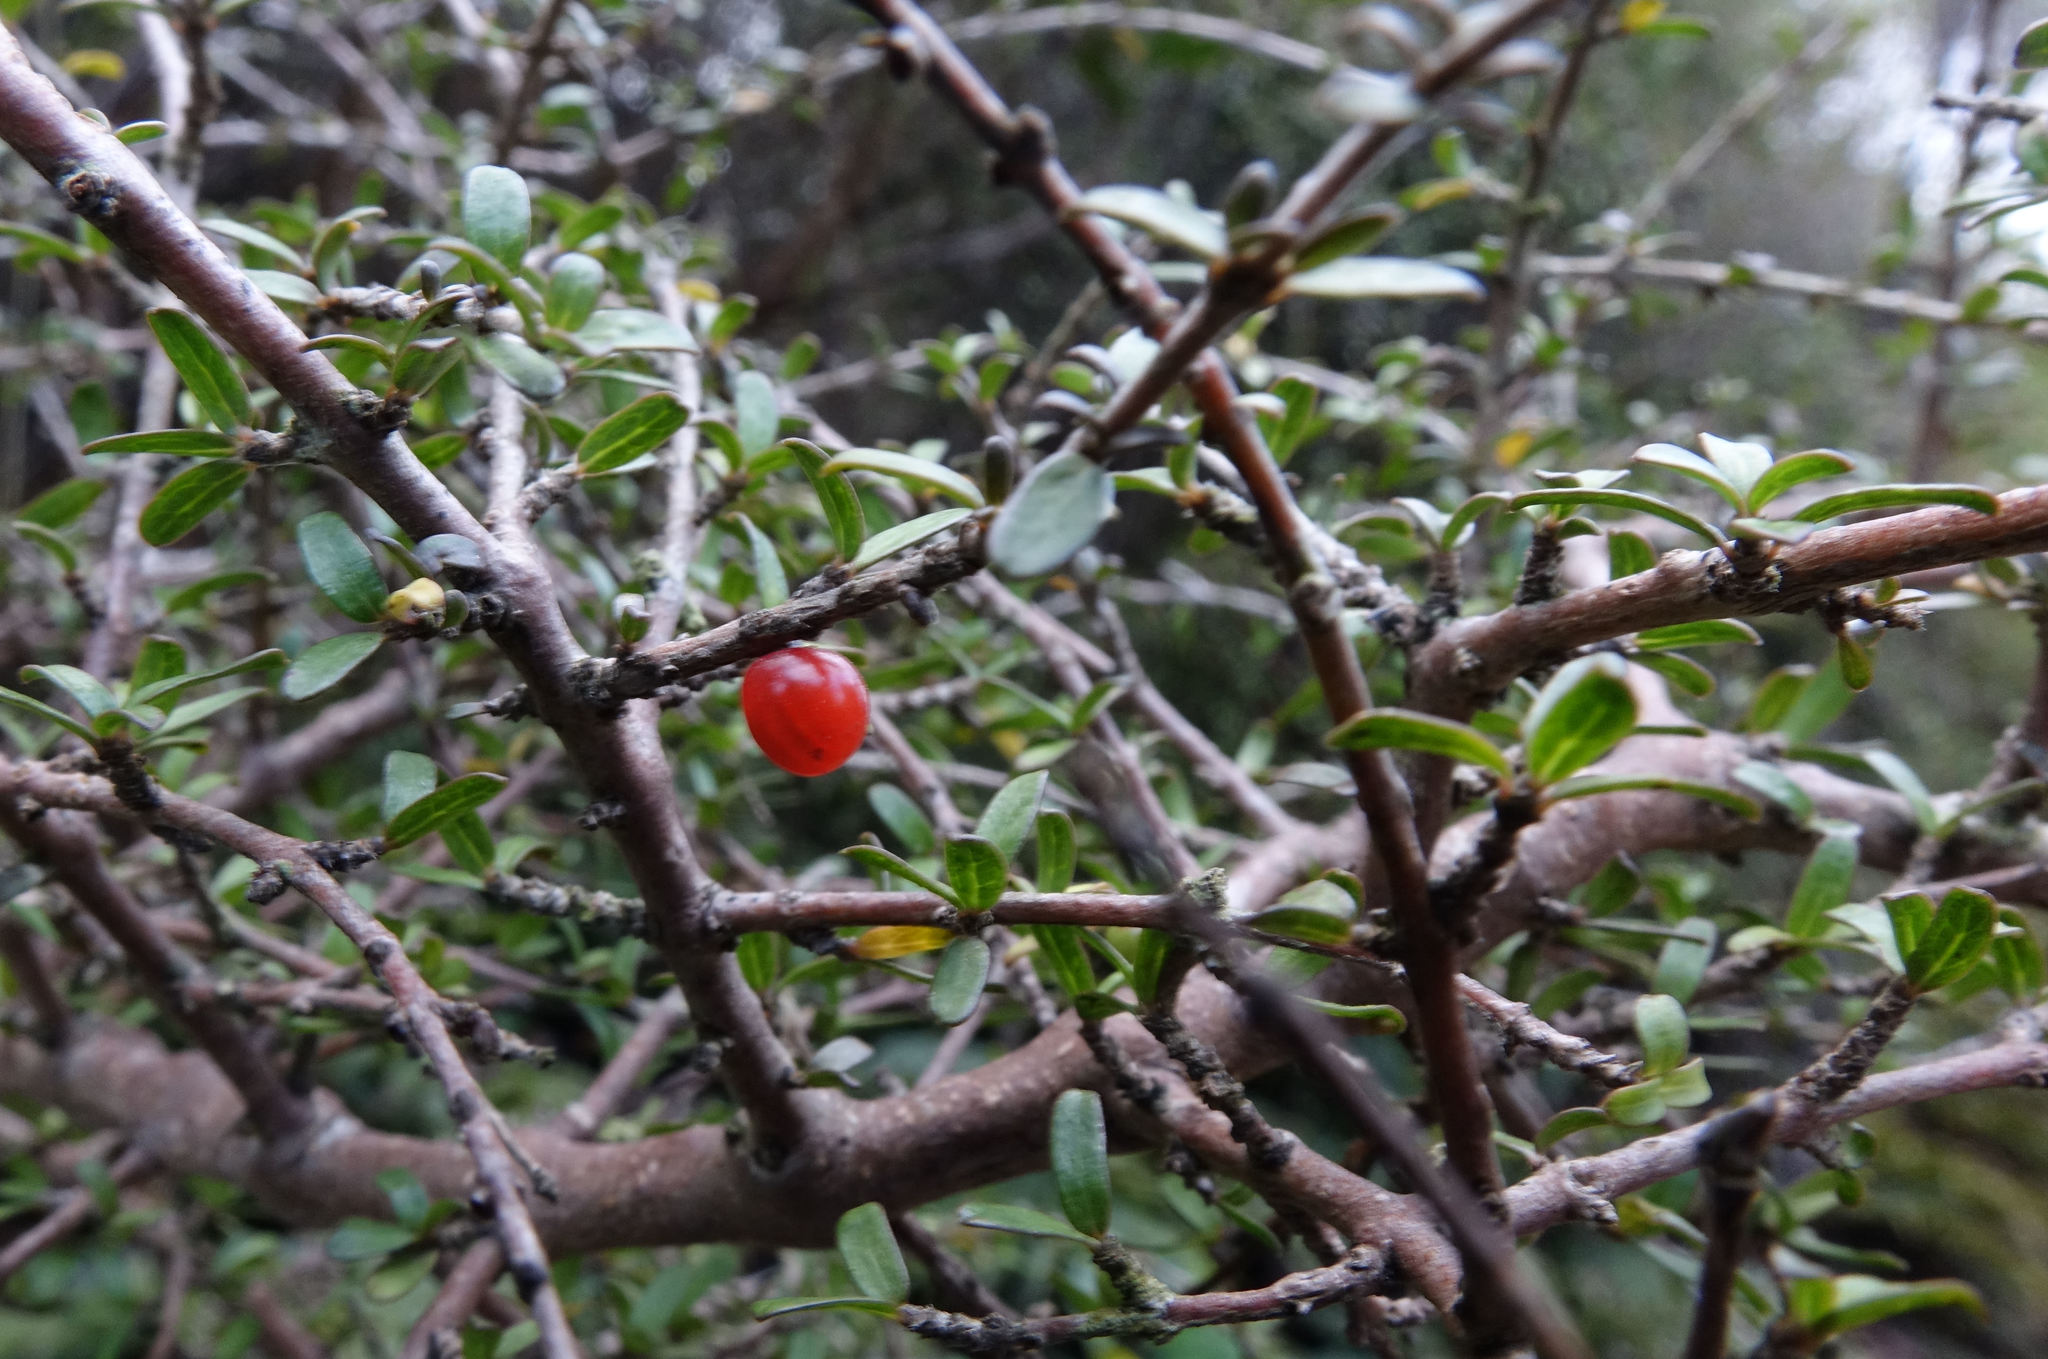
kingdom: Plantae
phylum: Tracheophyta
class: Magnoliopsida
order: Gentianales
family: Rubiaceae
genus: Coprosma
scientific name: Coprosma decurva
